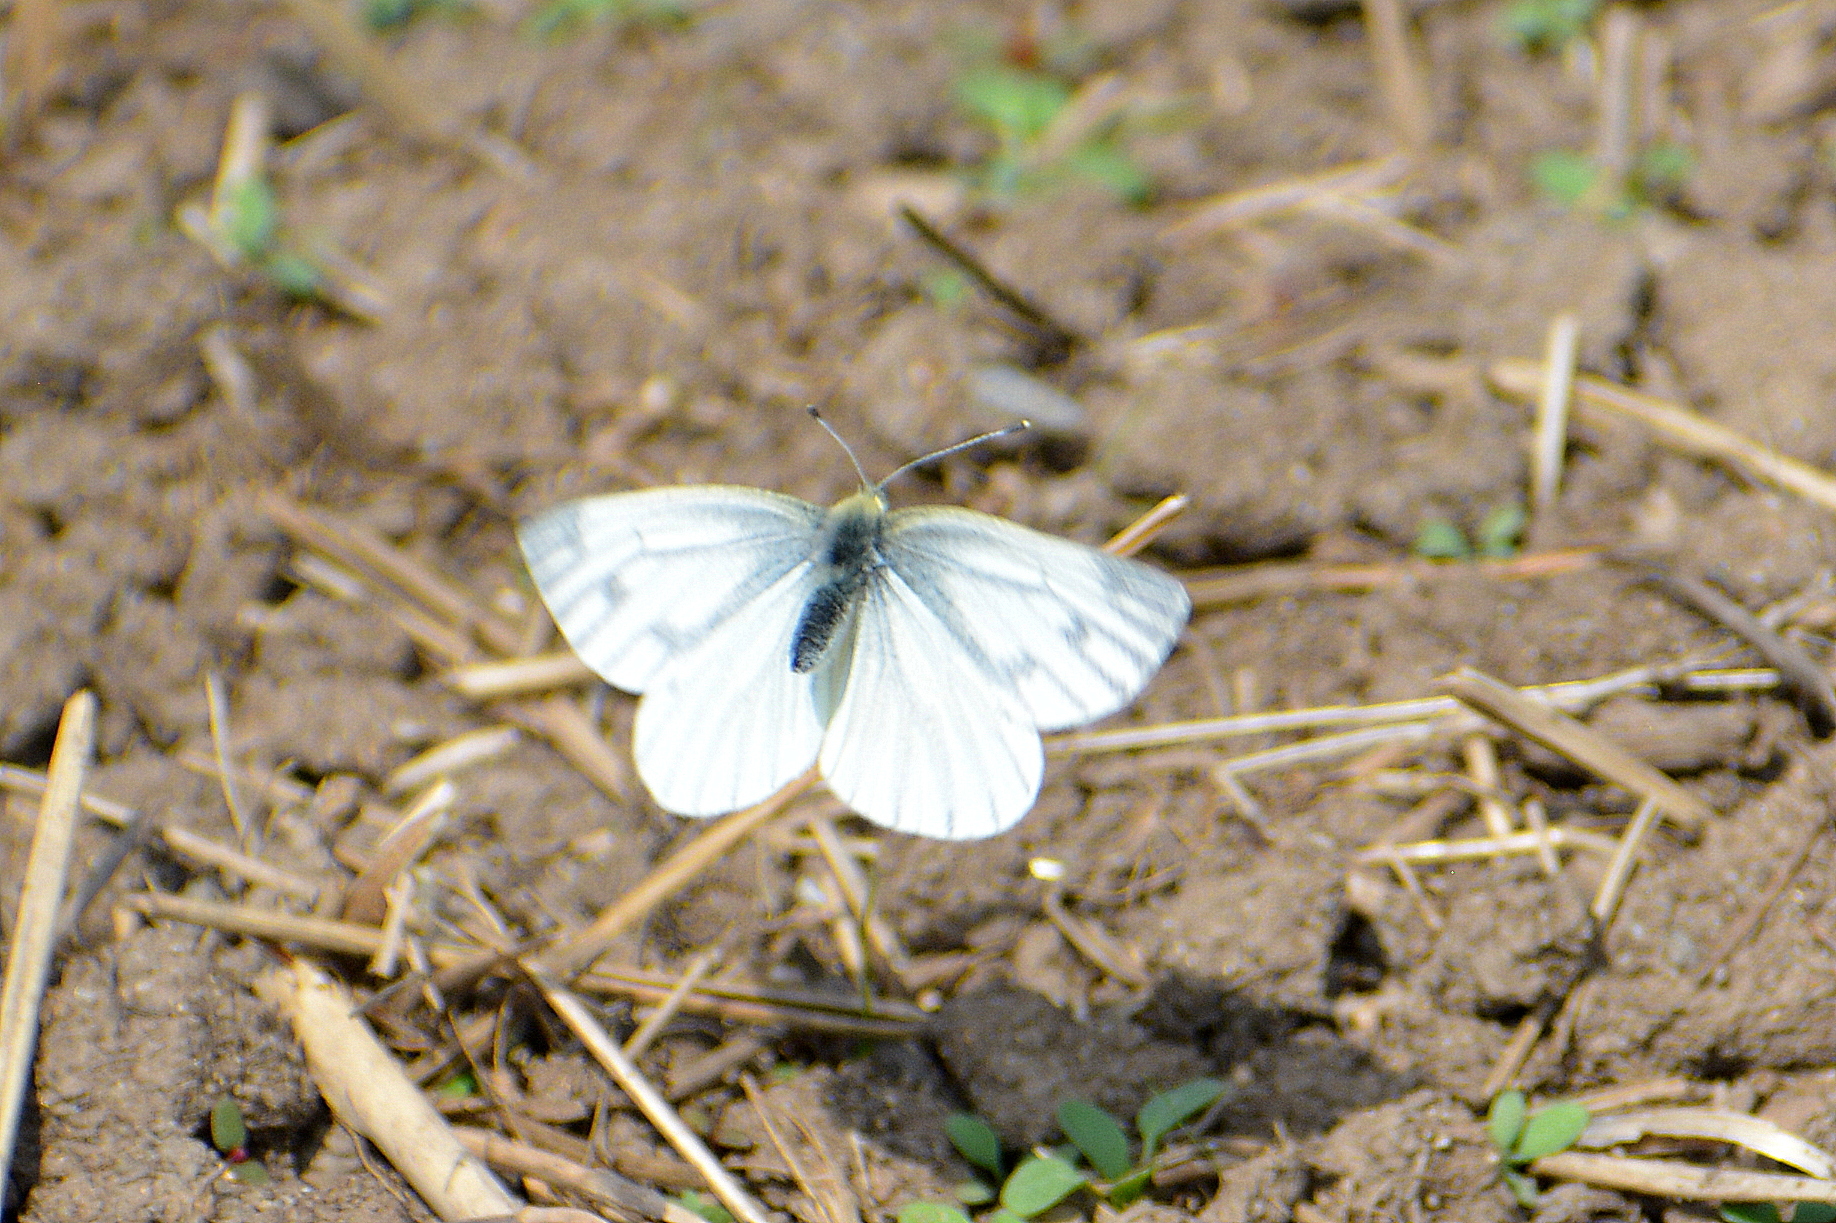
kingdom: Animalia
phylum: Arthropoda
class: Insecta
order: Lepidoptera
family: Pieridae
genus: Pieris
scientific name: Pieris napi
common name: Green-veined white
